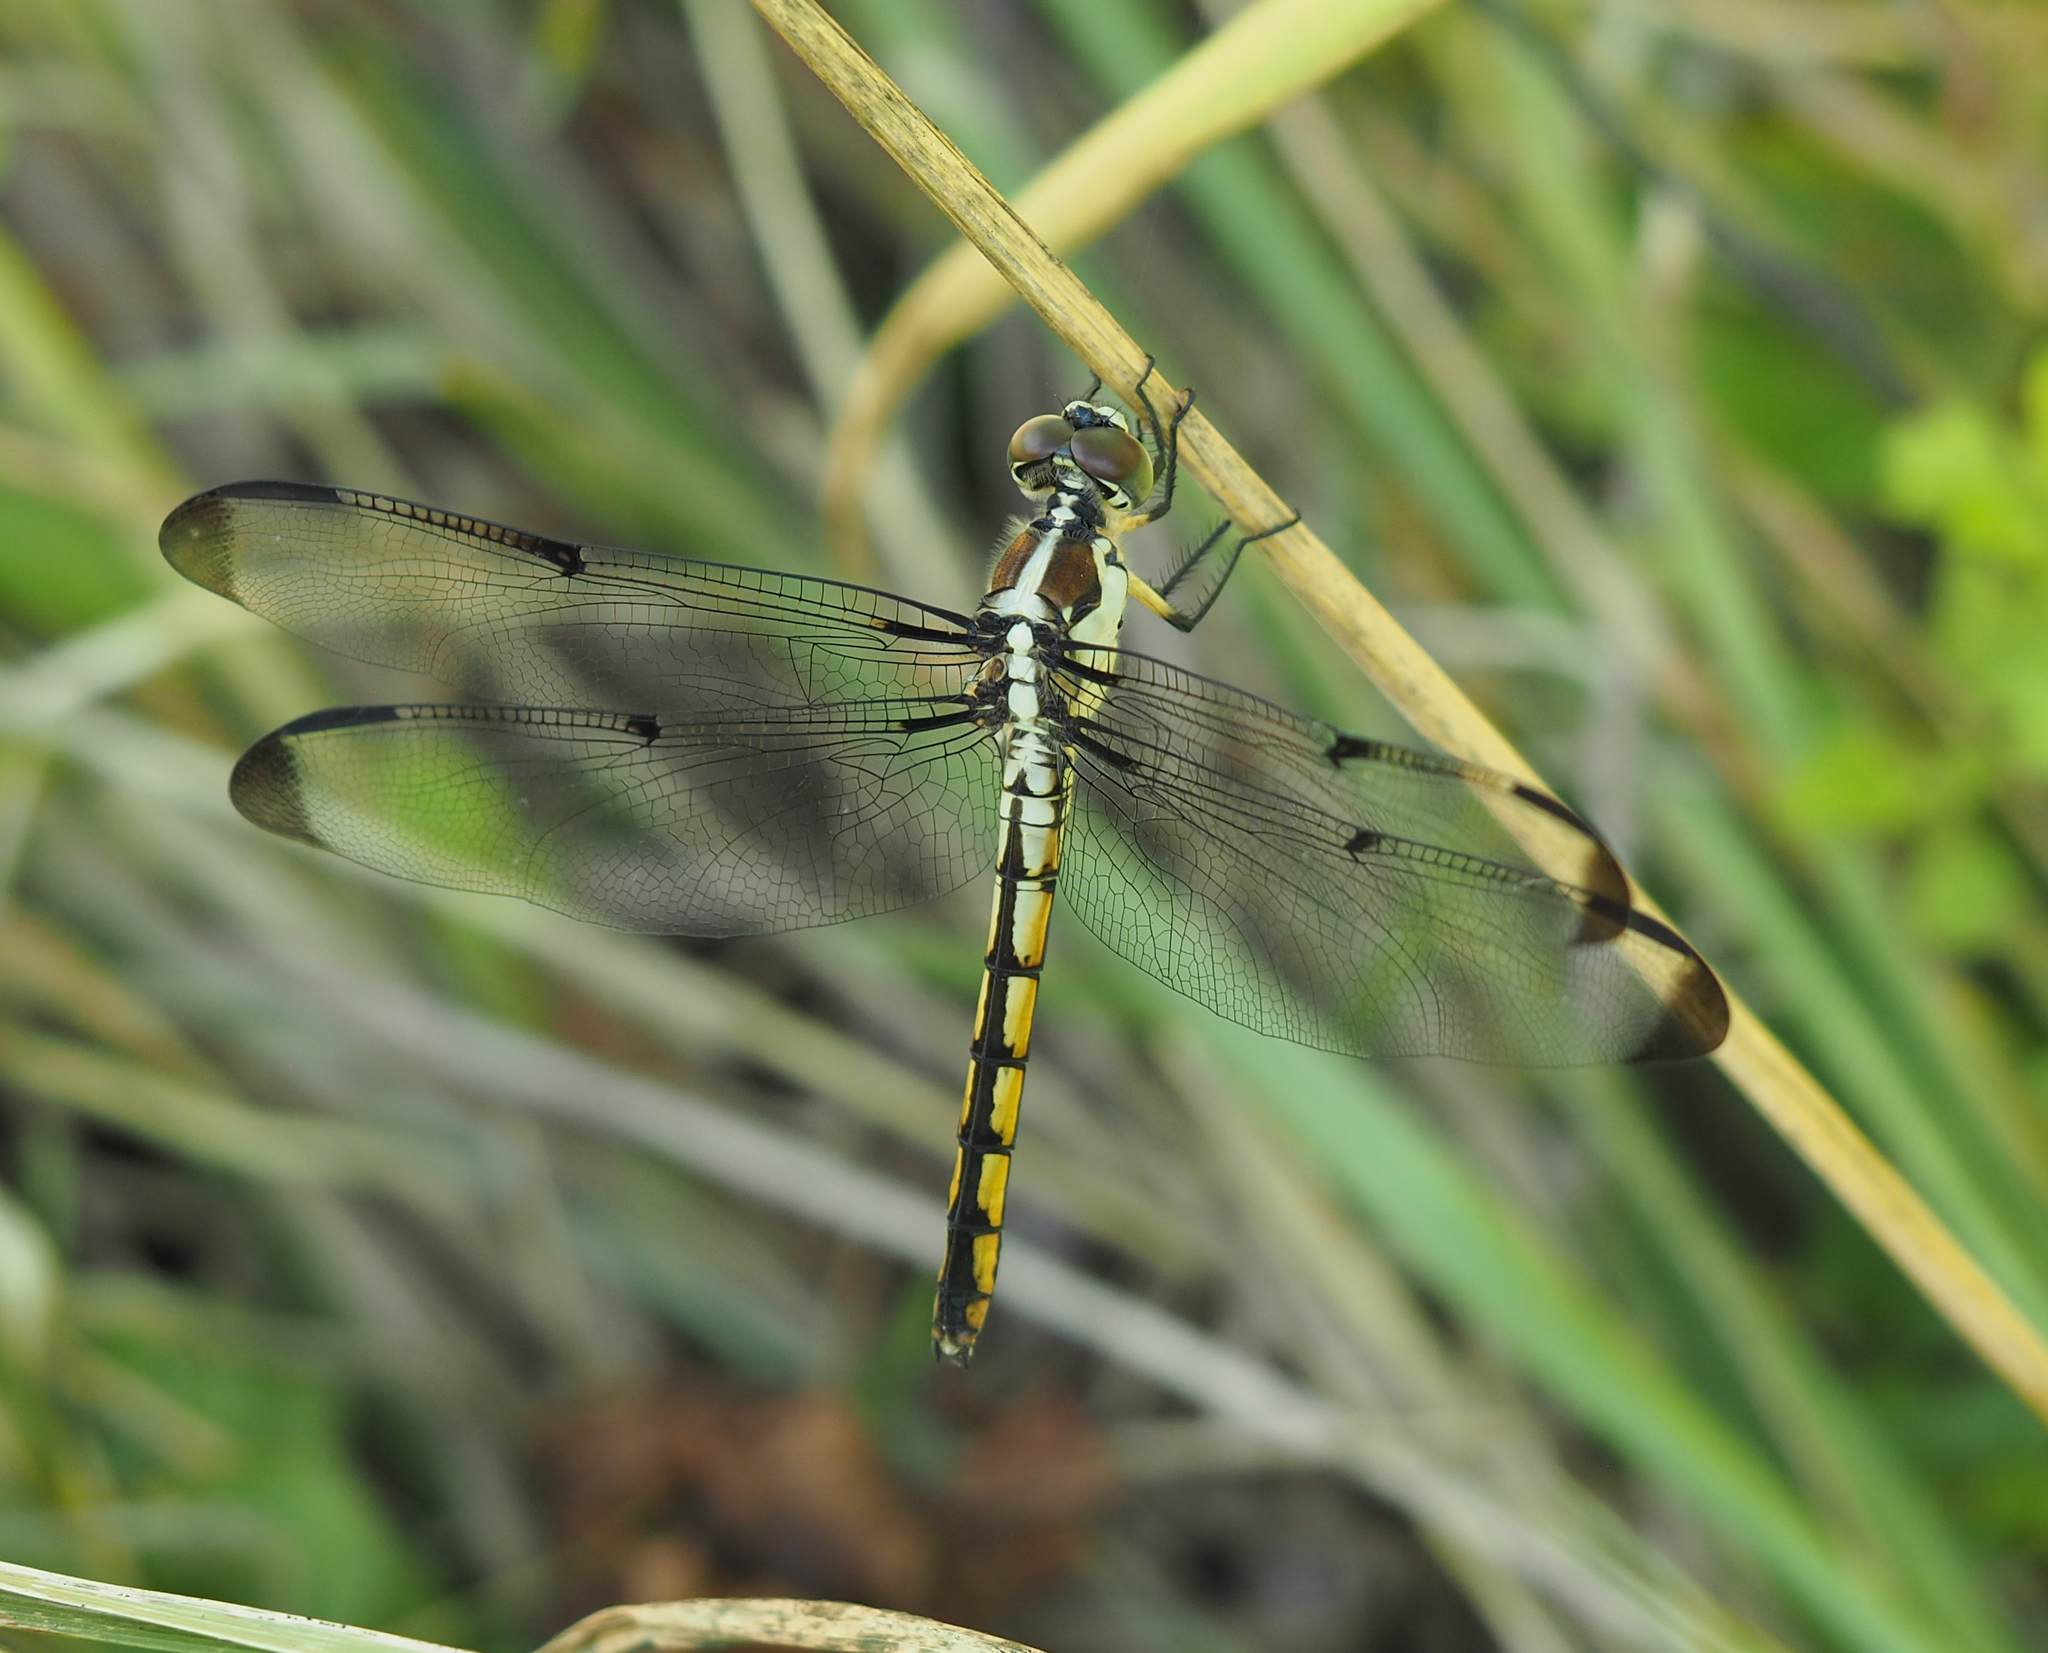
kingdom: Animalia
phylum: Arthropoda
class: Insecta
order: Odonata
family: Libellulidae
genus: Libellula
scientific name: Libellula vibrans
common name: Great blue skimmer
